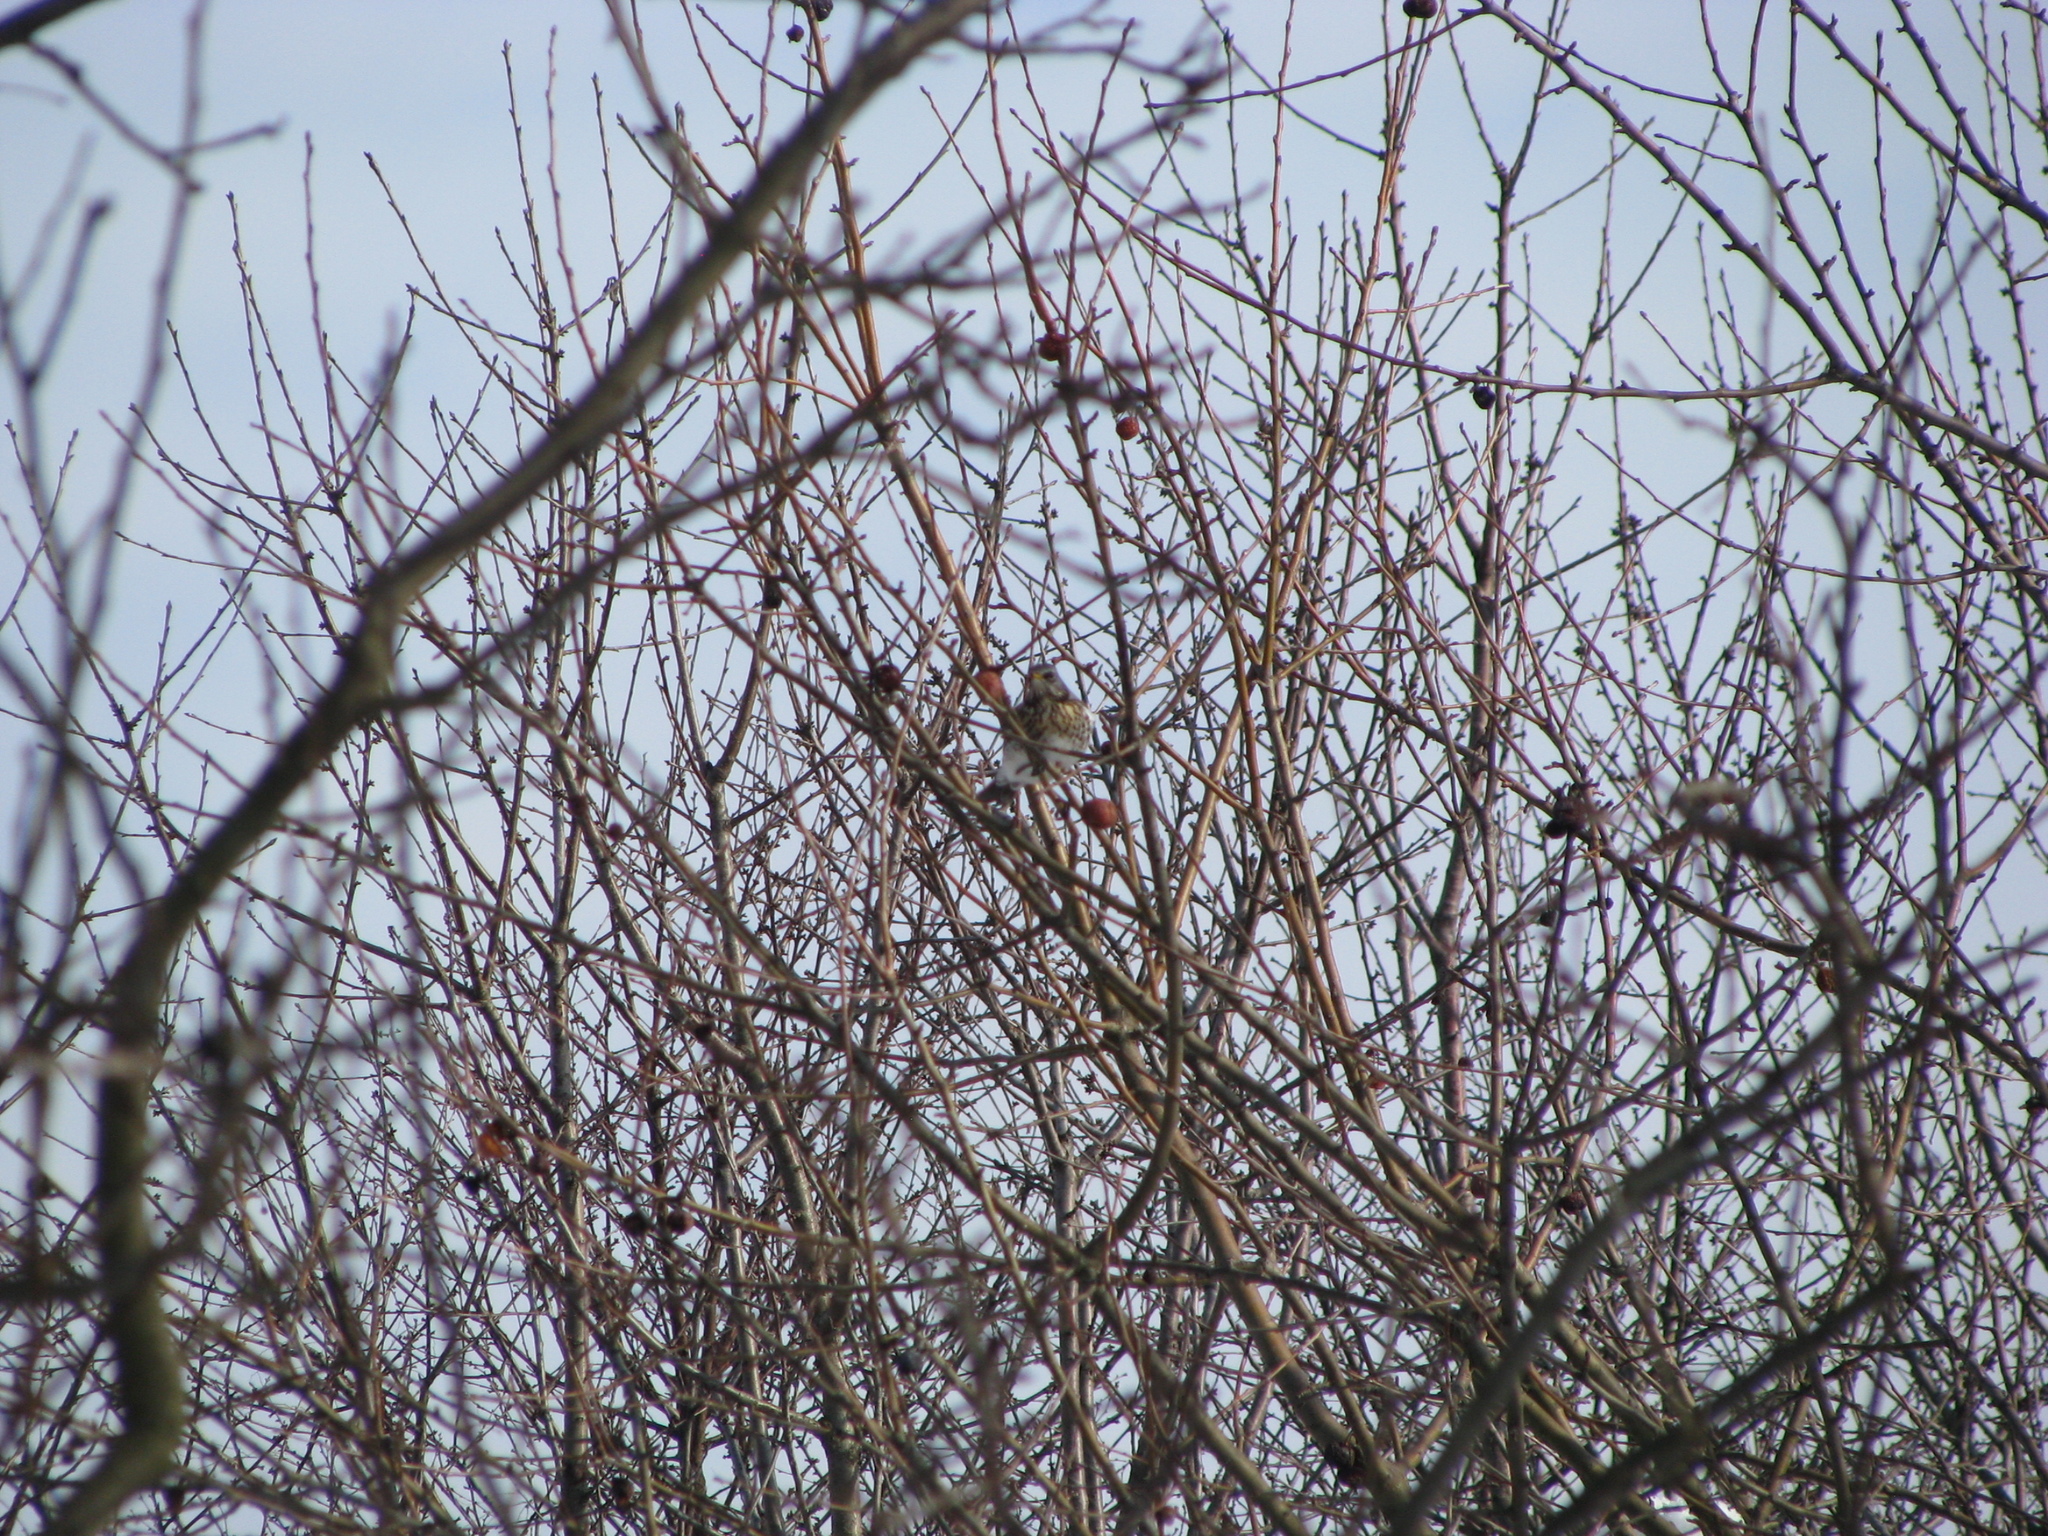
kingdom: Animalia
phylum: Chordata
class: Aves
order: Passeriformes
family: Turdidae
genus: Turdus
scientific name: Turdus pilaris
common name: Fieldfare
